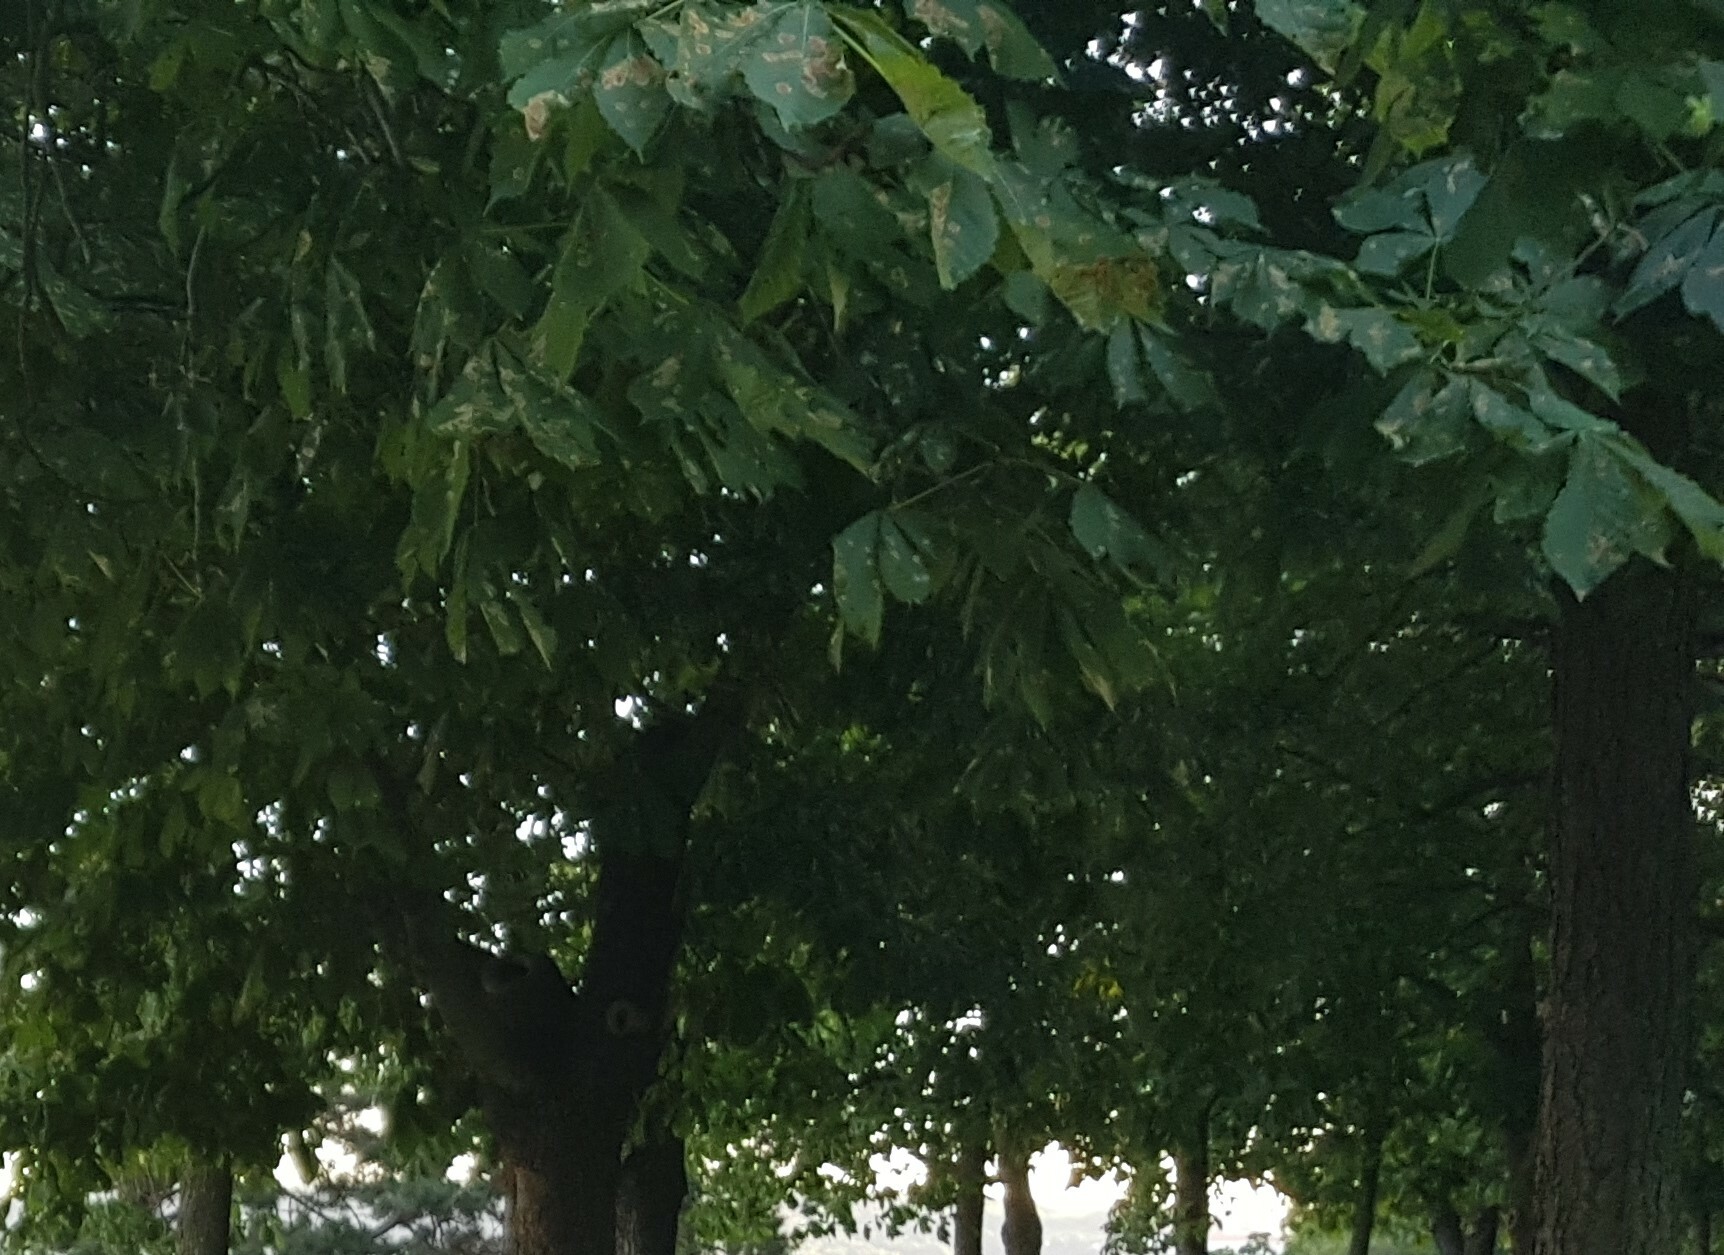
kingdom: Animalia
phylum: Arthropoda
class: Insecta
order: Lepidoptera
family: Gracillariidae
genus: Cameraria
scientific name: Cameraria ohridella
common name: Horse-chestnut leaf-miner
